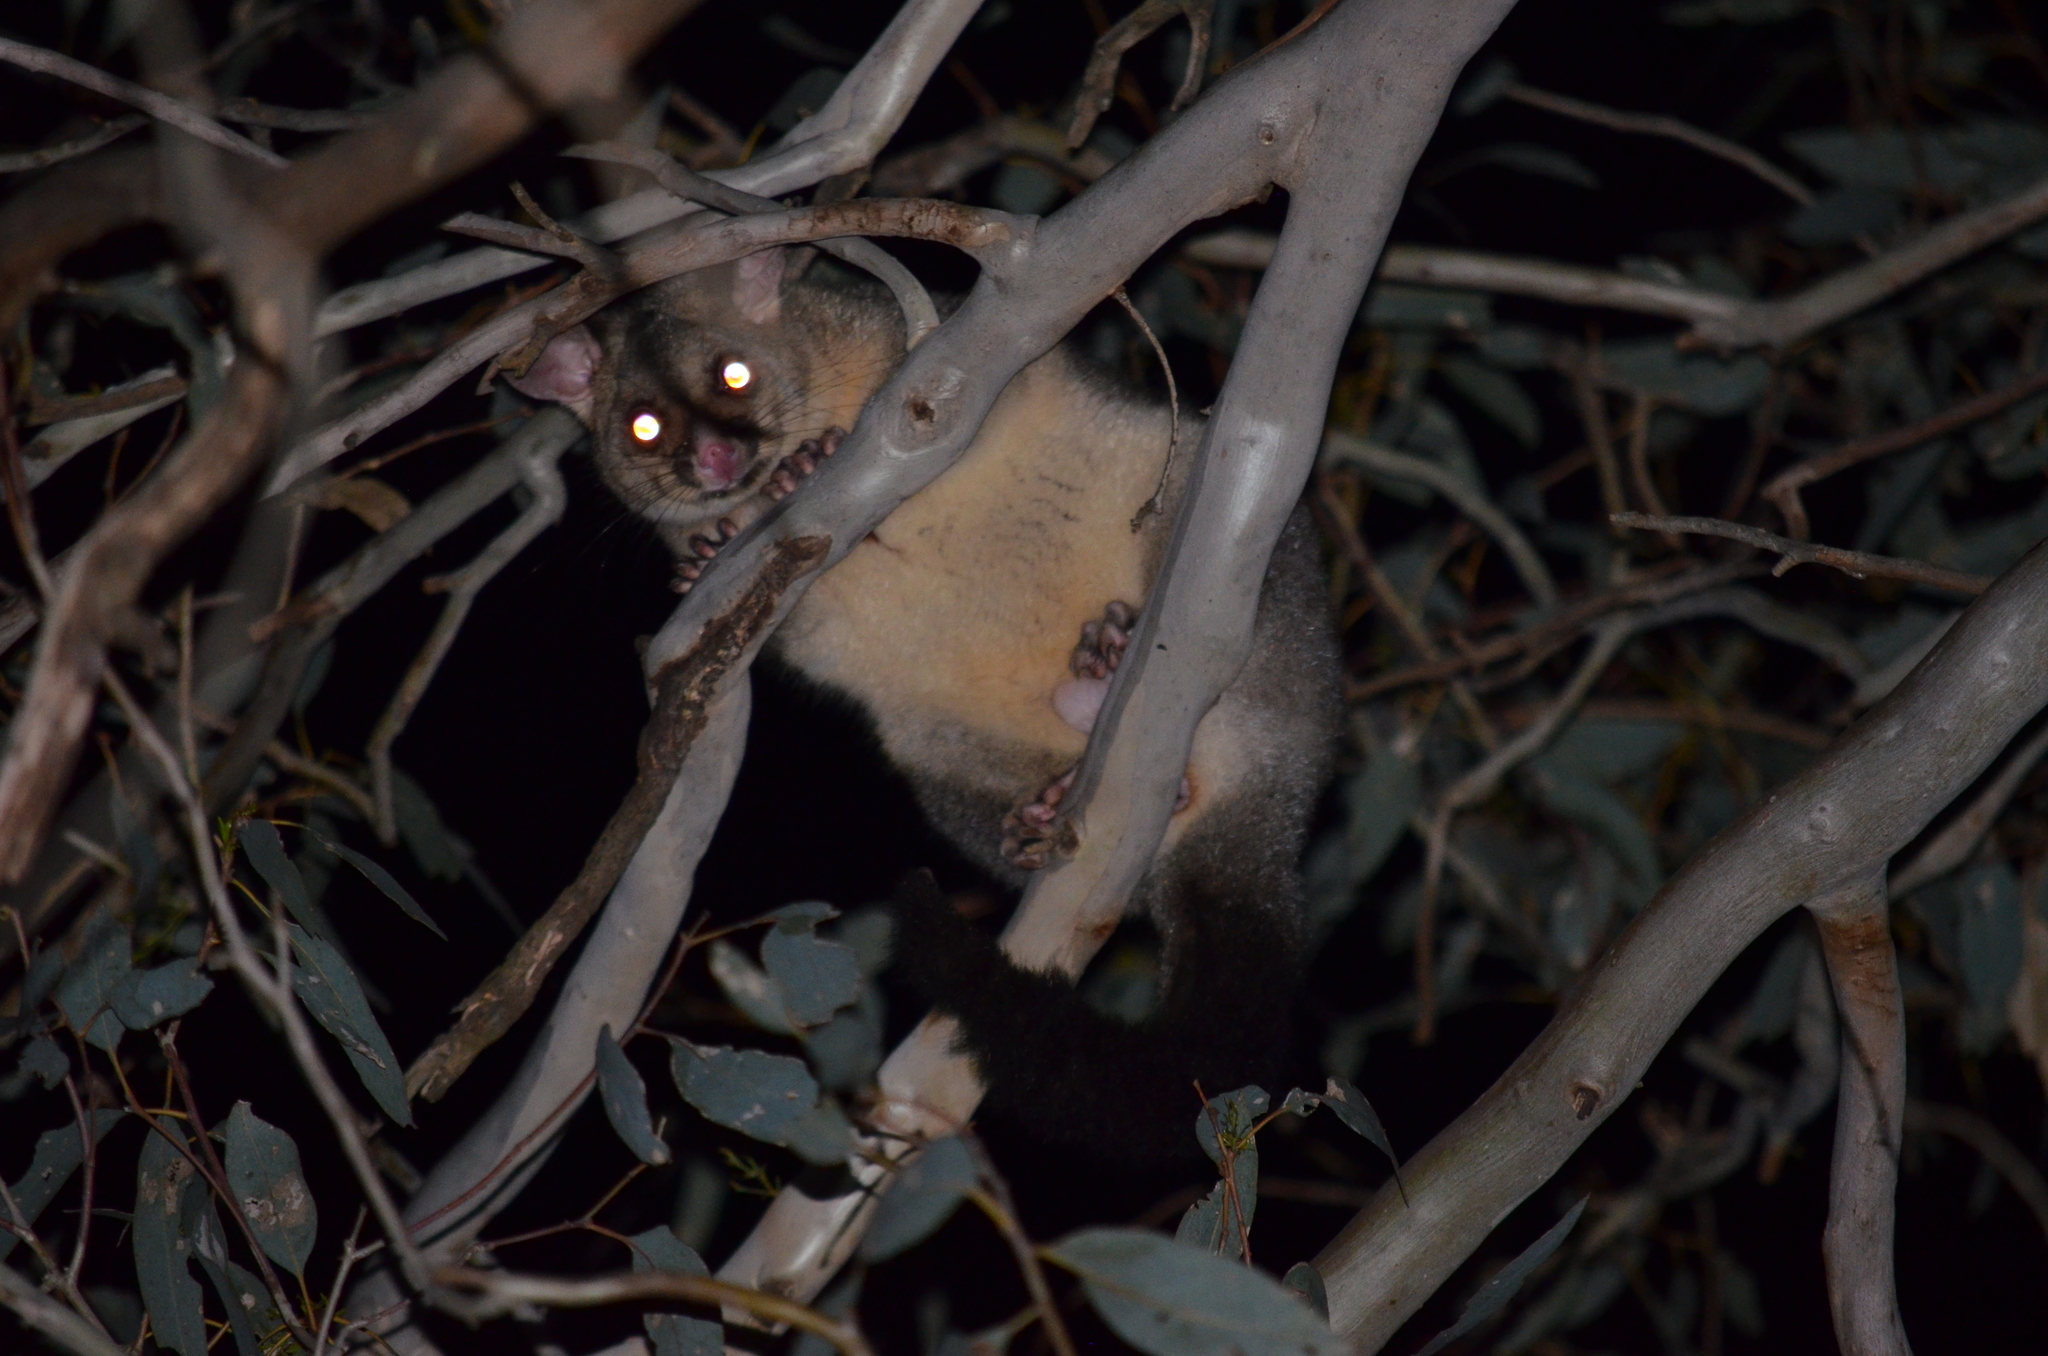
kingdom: Animalia
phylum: Chordata
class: Mammalia
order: Diprotodontia
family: Phalangeridae
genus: Trichosurus
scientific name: Trichosurus vulpecula
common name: Common brushtail
